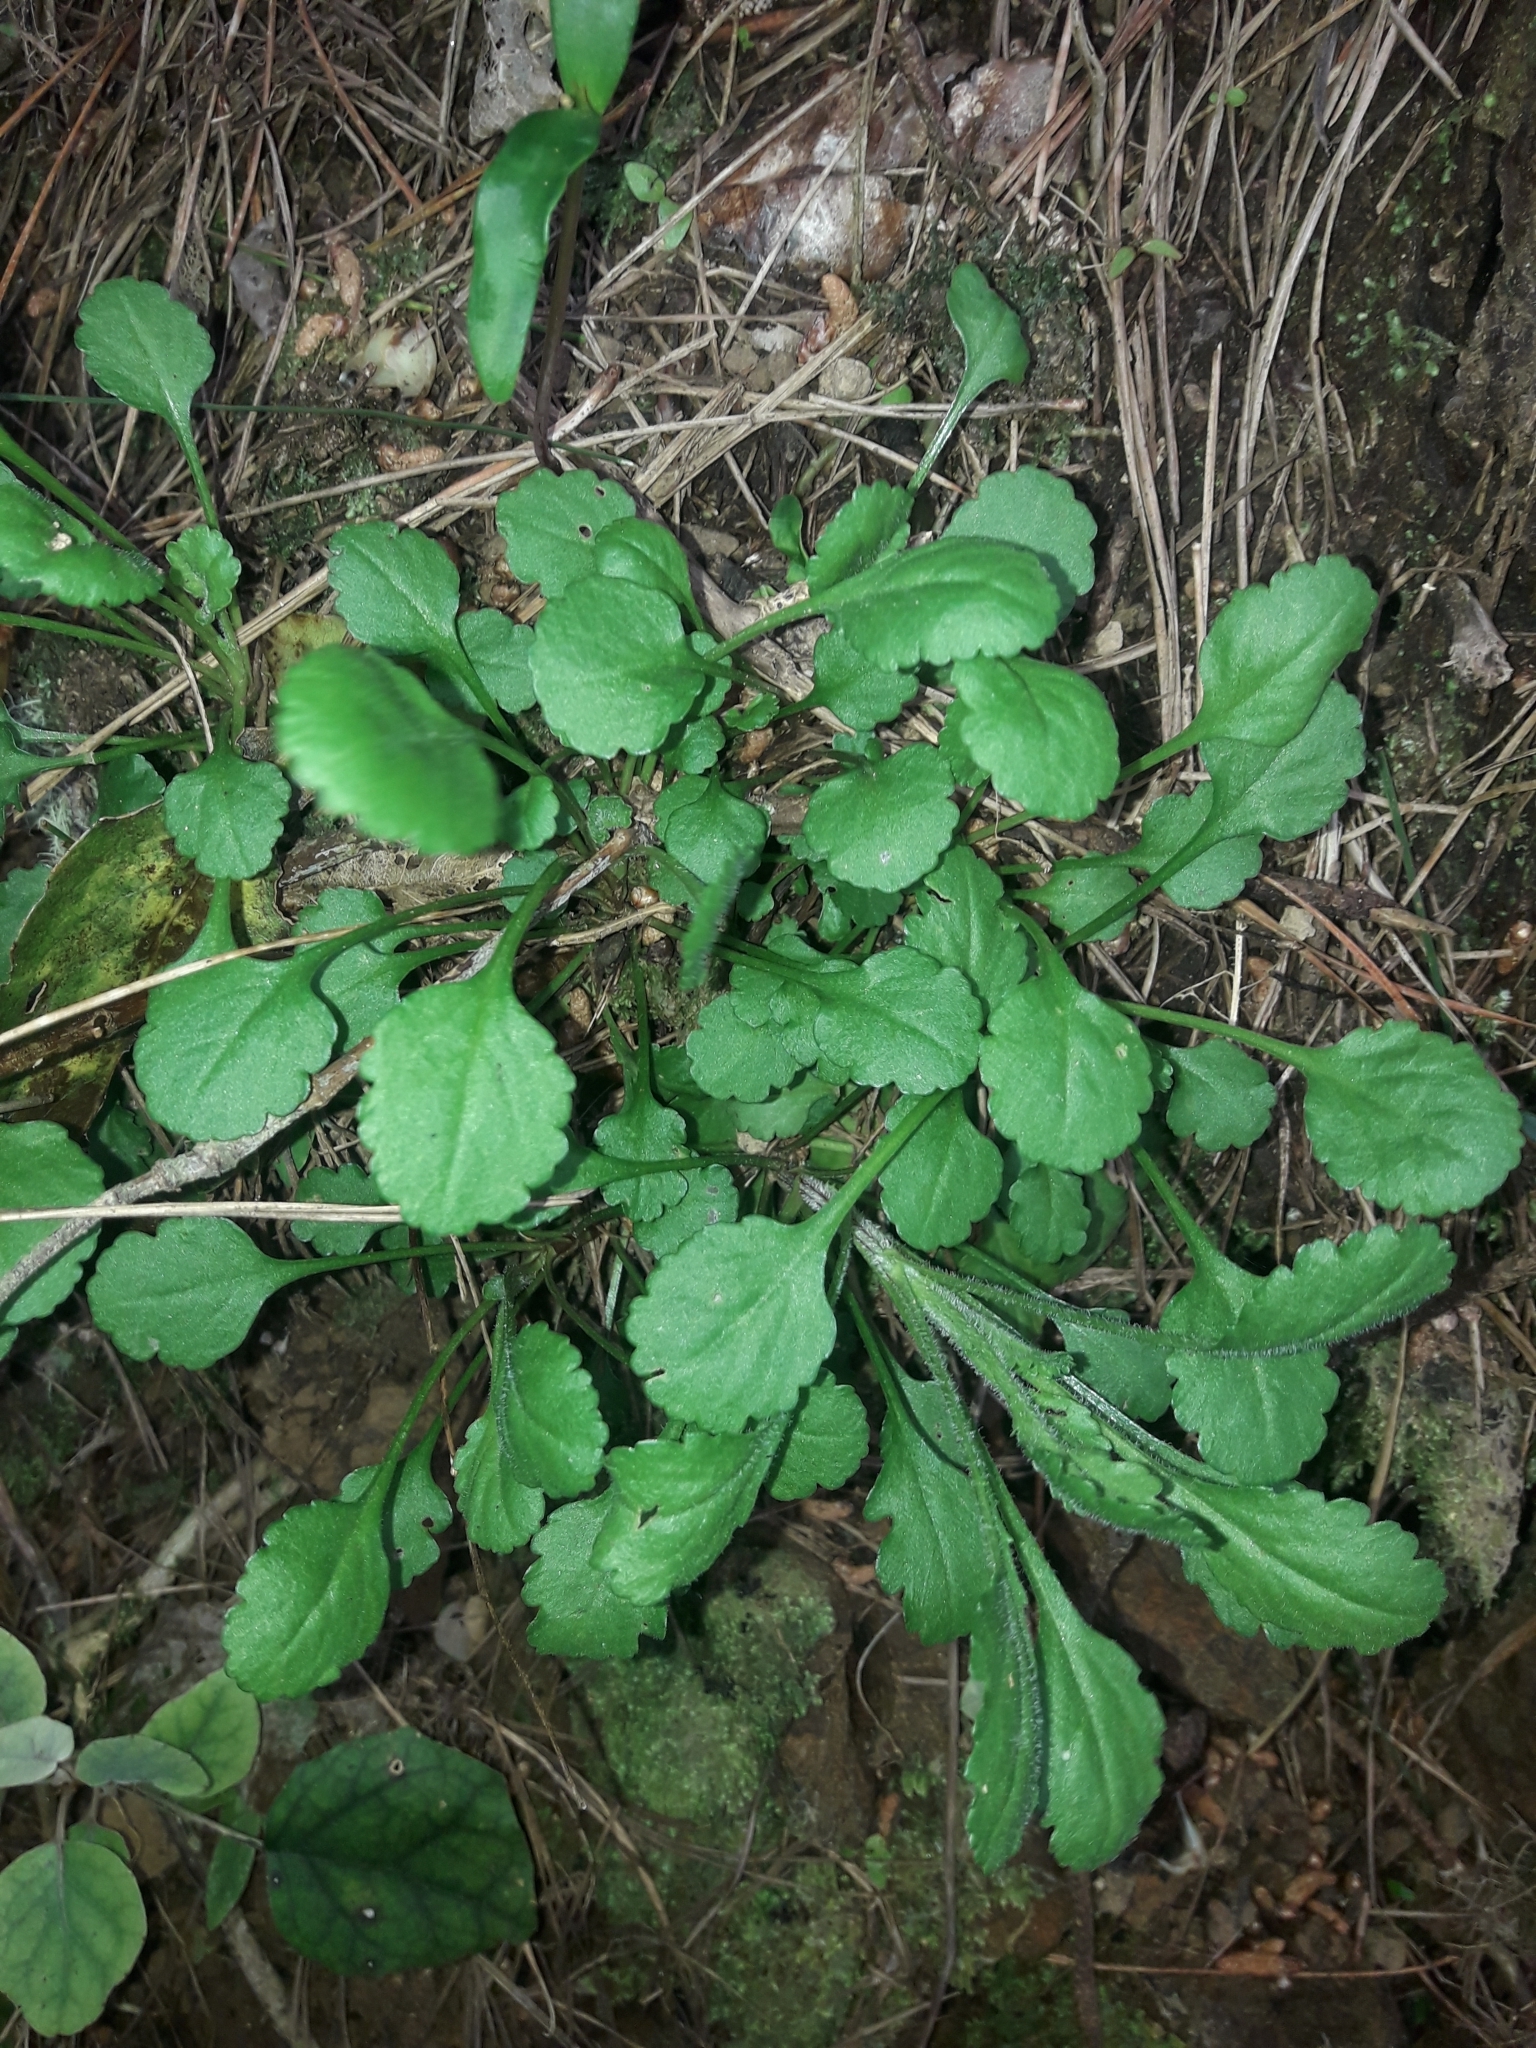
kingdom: Plantae
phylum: Tracheophyta
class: Magnoliopsida
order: Asterales
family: Asteraceae
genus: Leucanthemum
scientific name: Leucanthemum vulgare
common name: Oxeye daisy
